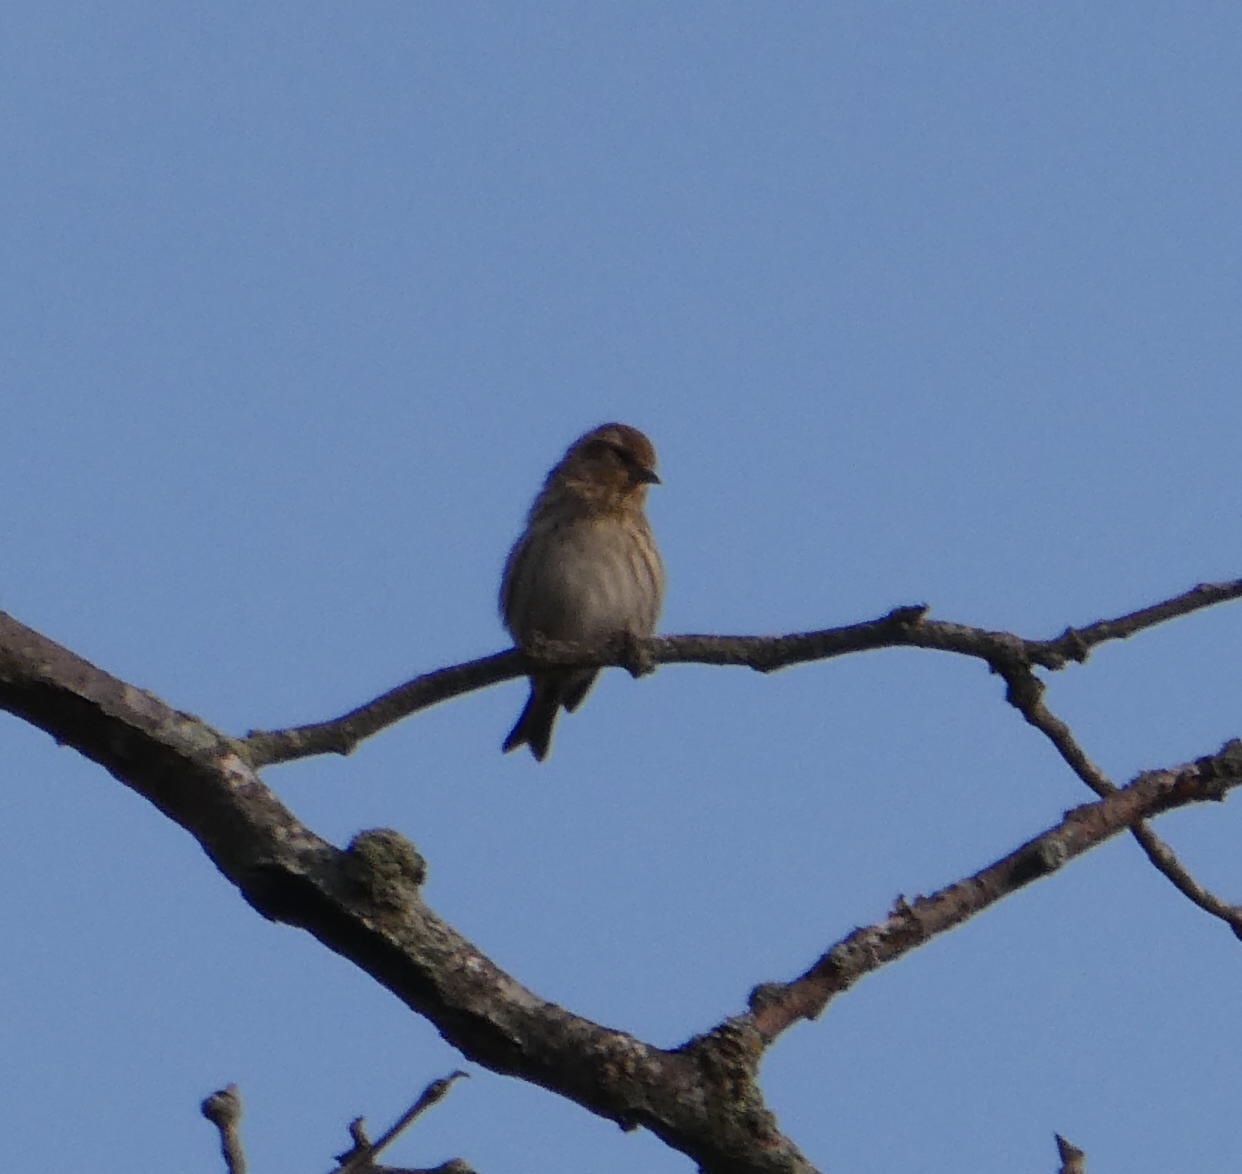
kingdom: Animalia
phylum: Chordata
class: Aves
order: Passeriformes
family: Fringillidae
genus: Spinus
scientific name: Spinus pinus
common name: Pine siskin
